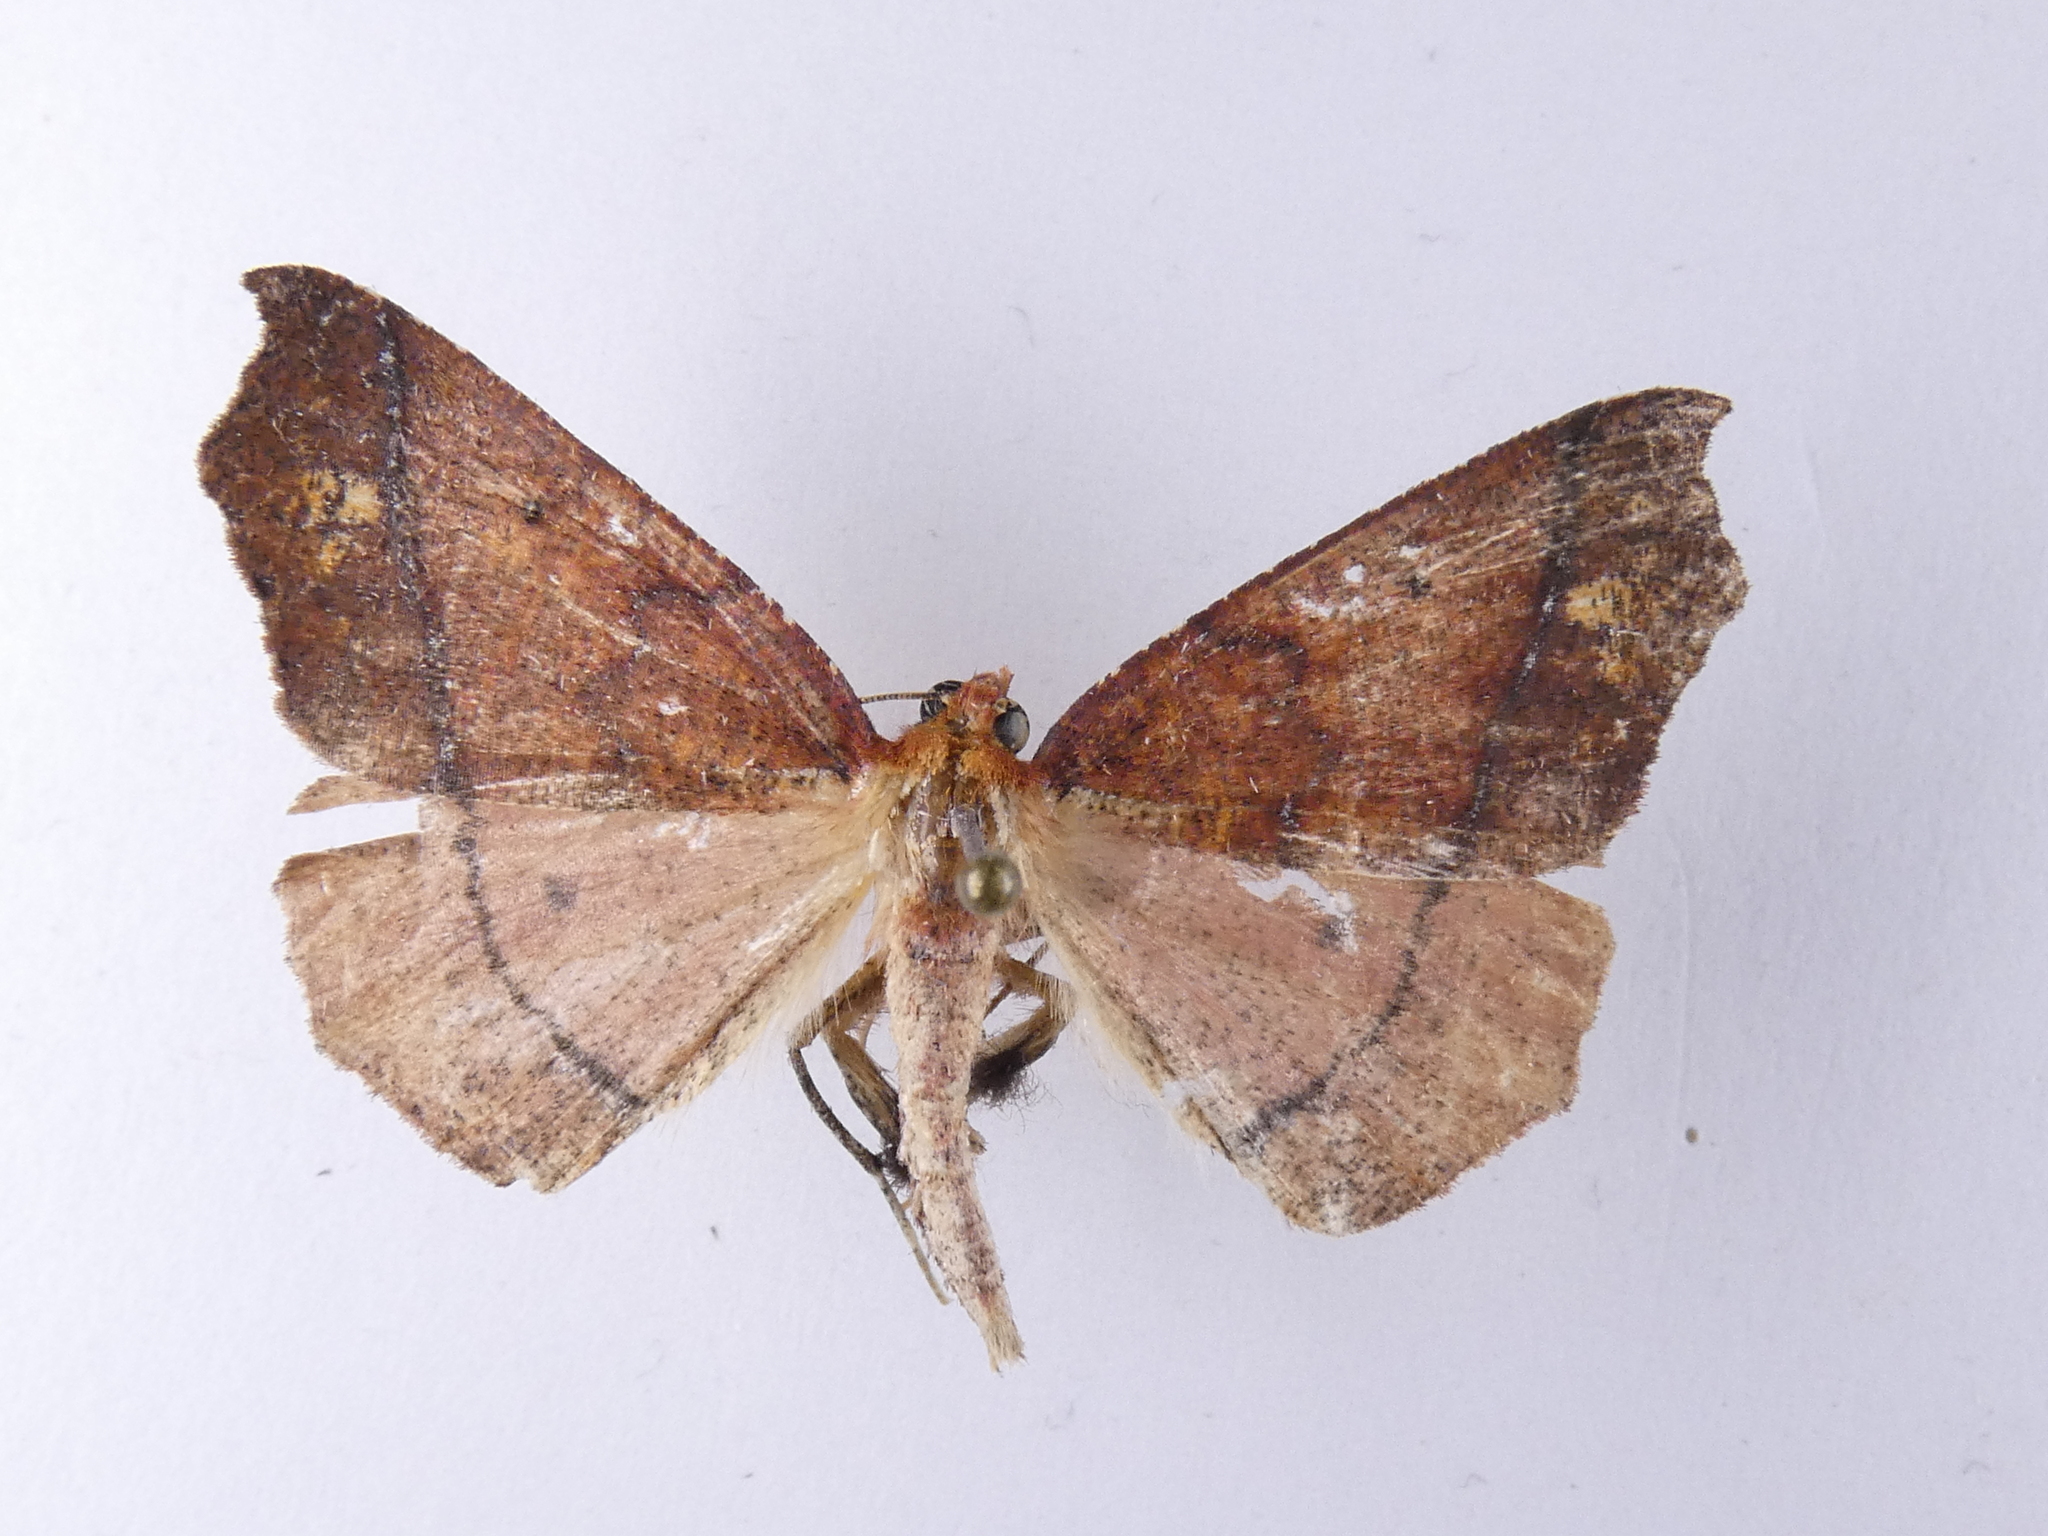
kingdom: Animalia
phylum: Arthropoda
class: Insecta
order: Lepidoptera
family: Geometridae
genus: Ischalis
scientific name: Ischalis nelsonaria
